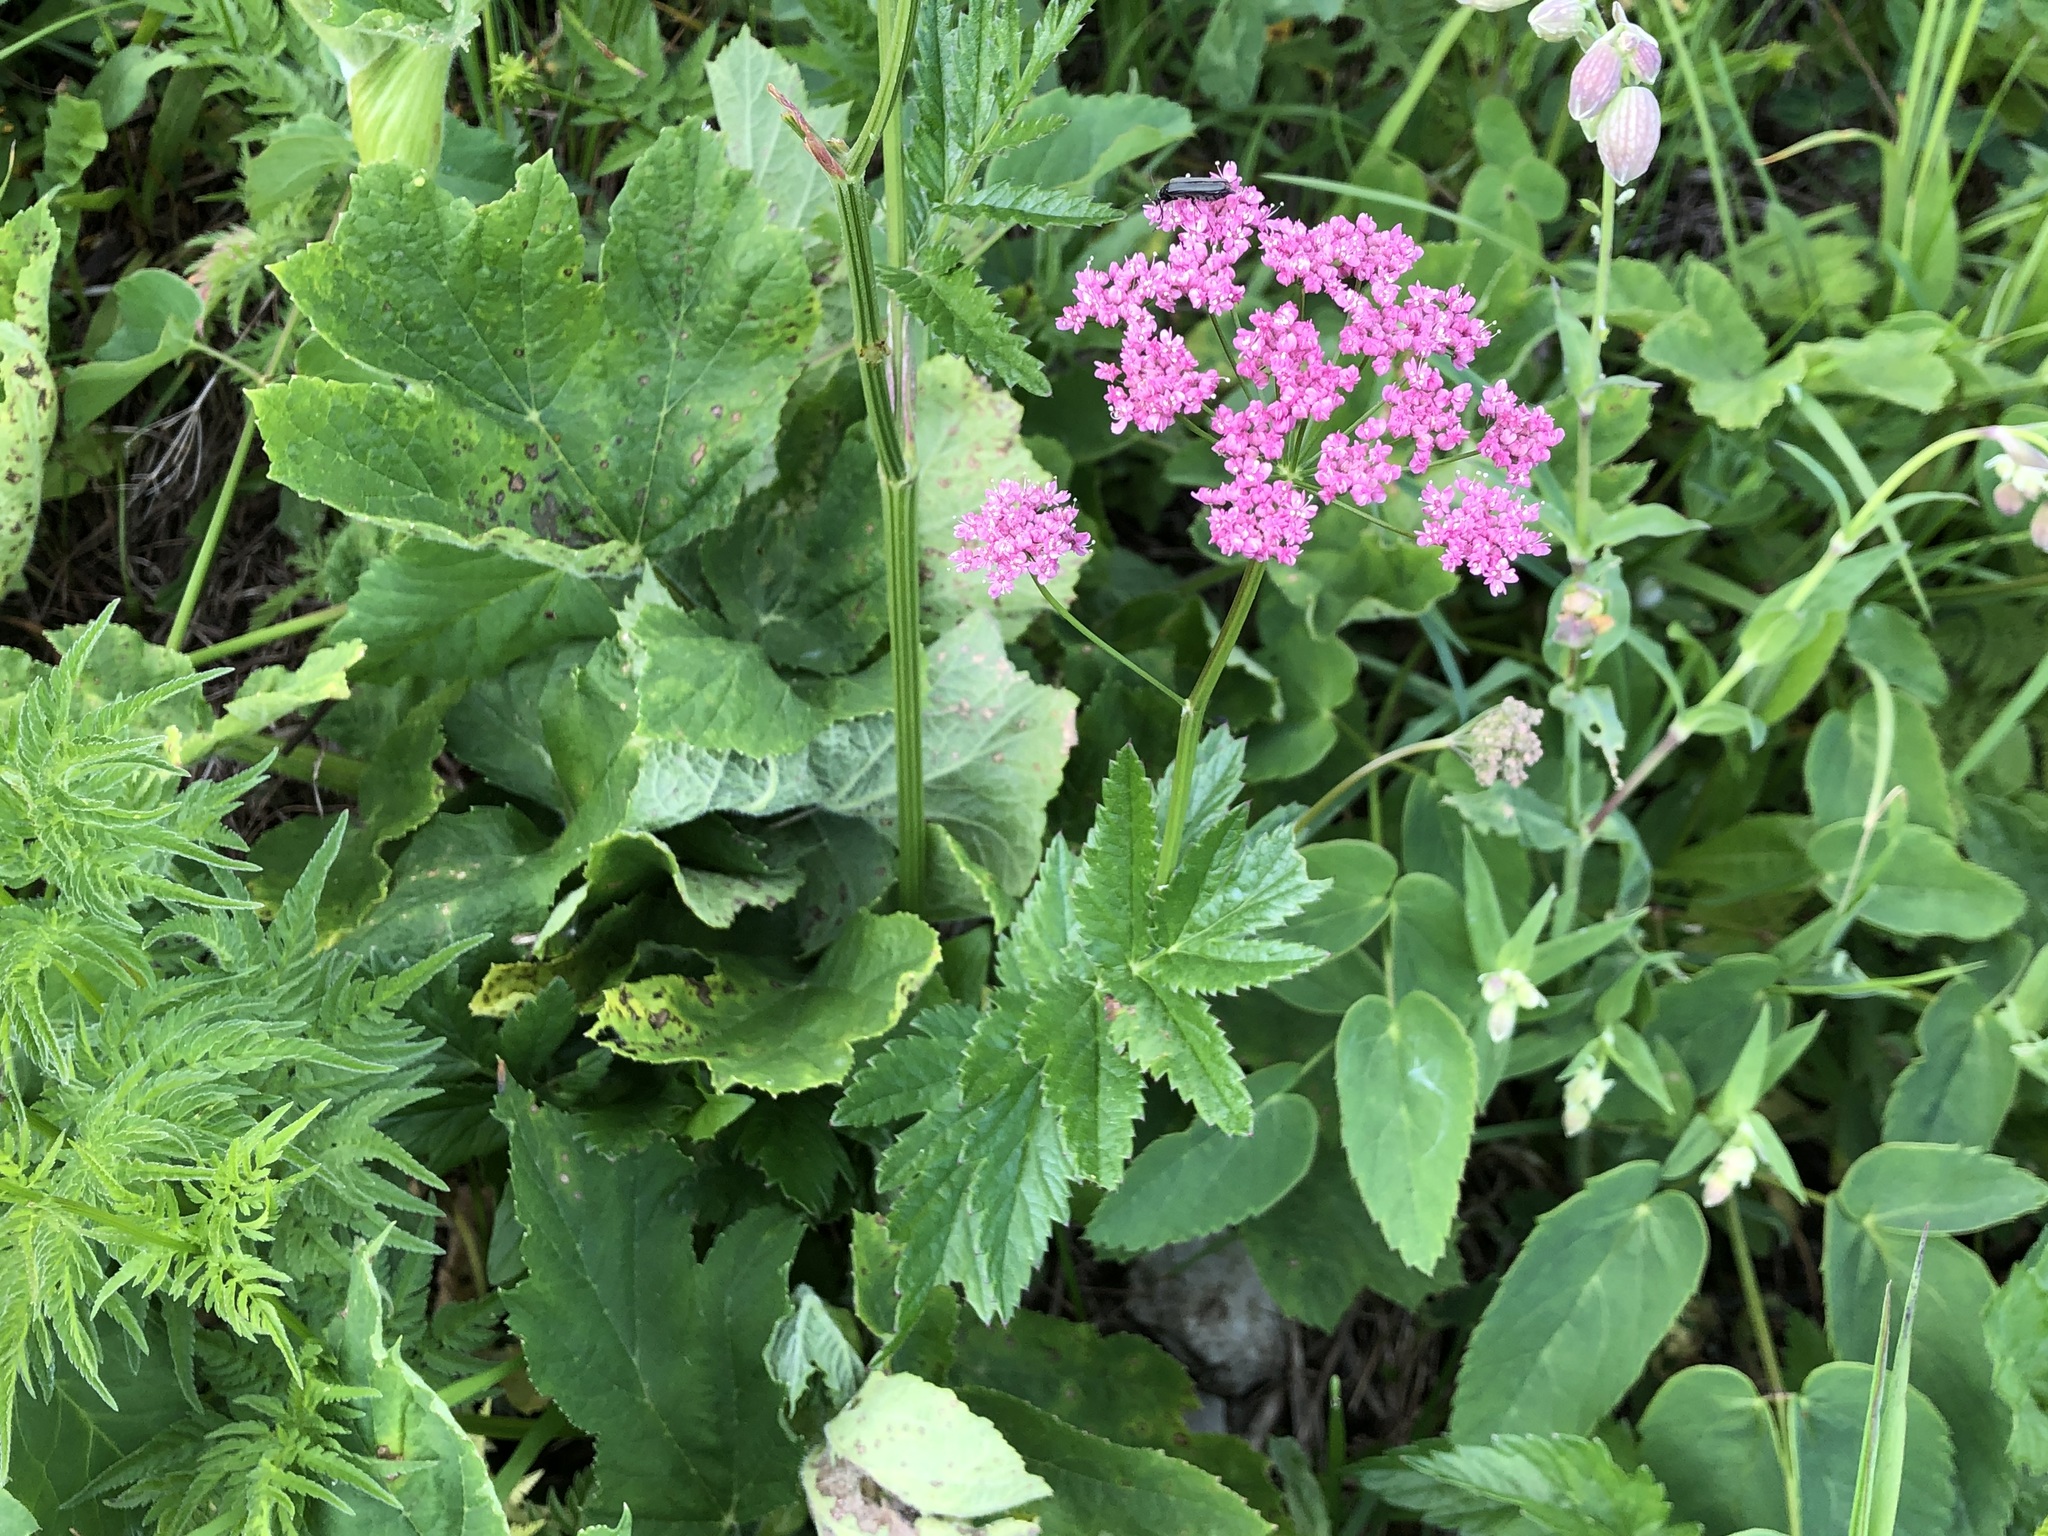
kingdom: Plantae
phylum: Tracheophyta
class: Magnoliopsida
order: Apiales
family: Apiaceae
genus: Pimpinella
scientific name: Pimpinella major
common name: Greater burnet-saxifrage
